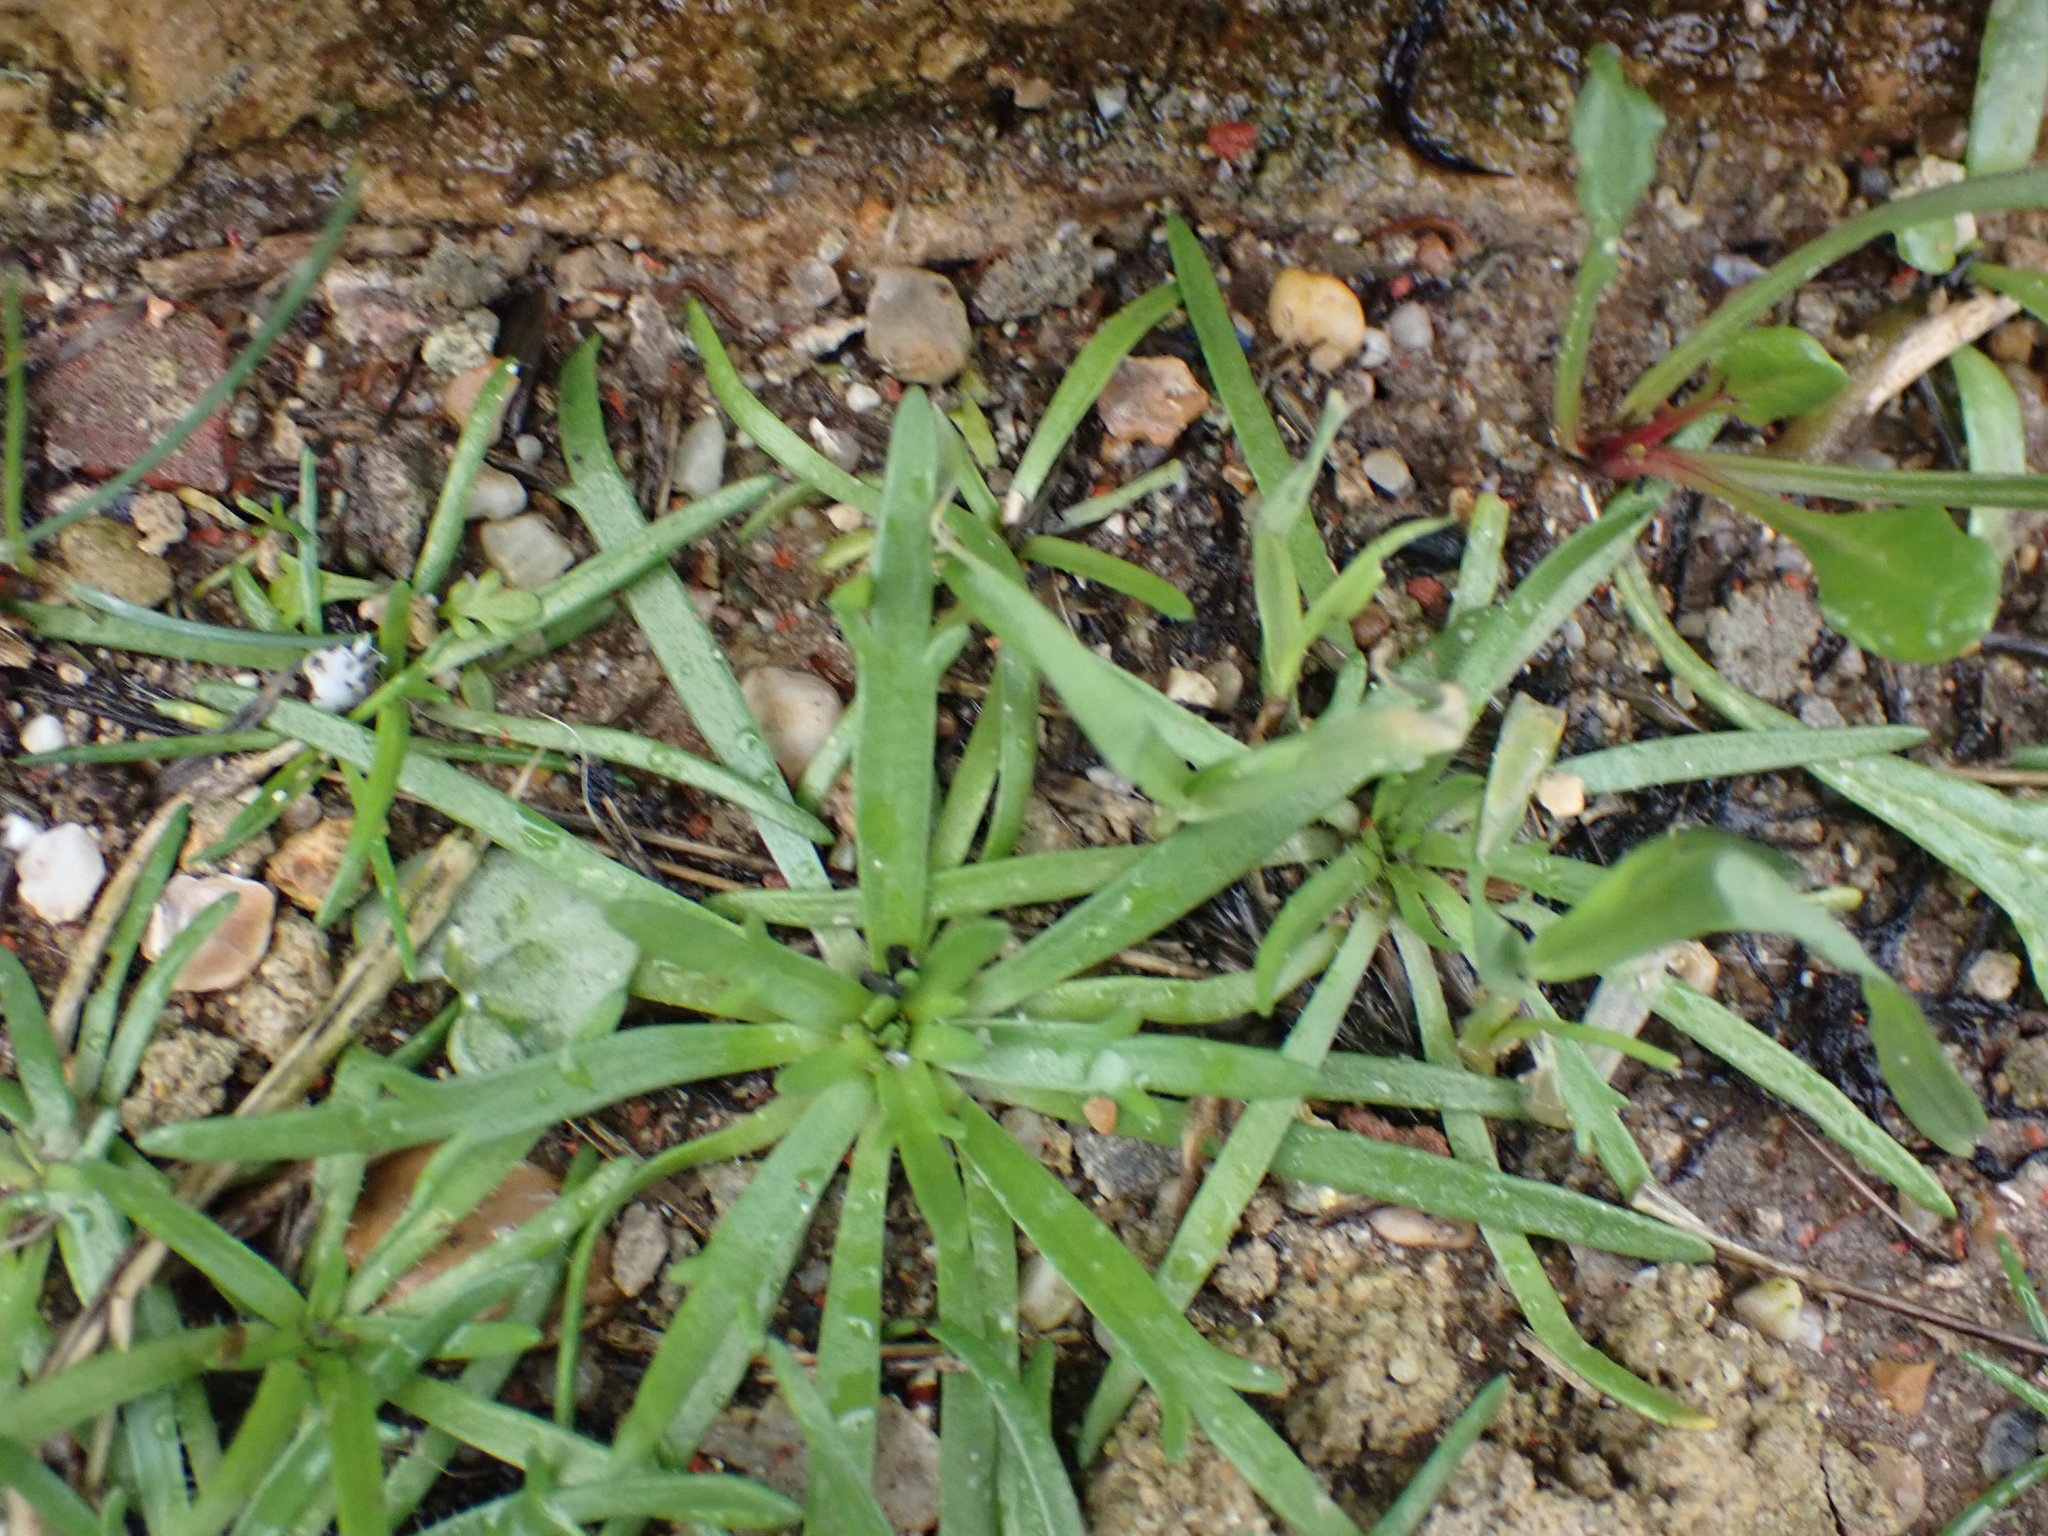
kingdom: Plantae
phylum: Tracheophyta
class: Magnoliopsida
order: Lamiales
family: Plantaginaceae
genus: Plantago
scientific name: Plantago coronopus
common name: Buck's-horn plantain
